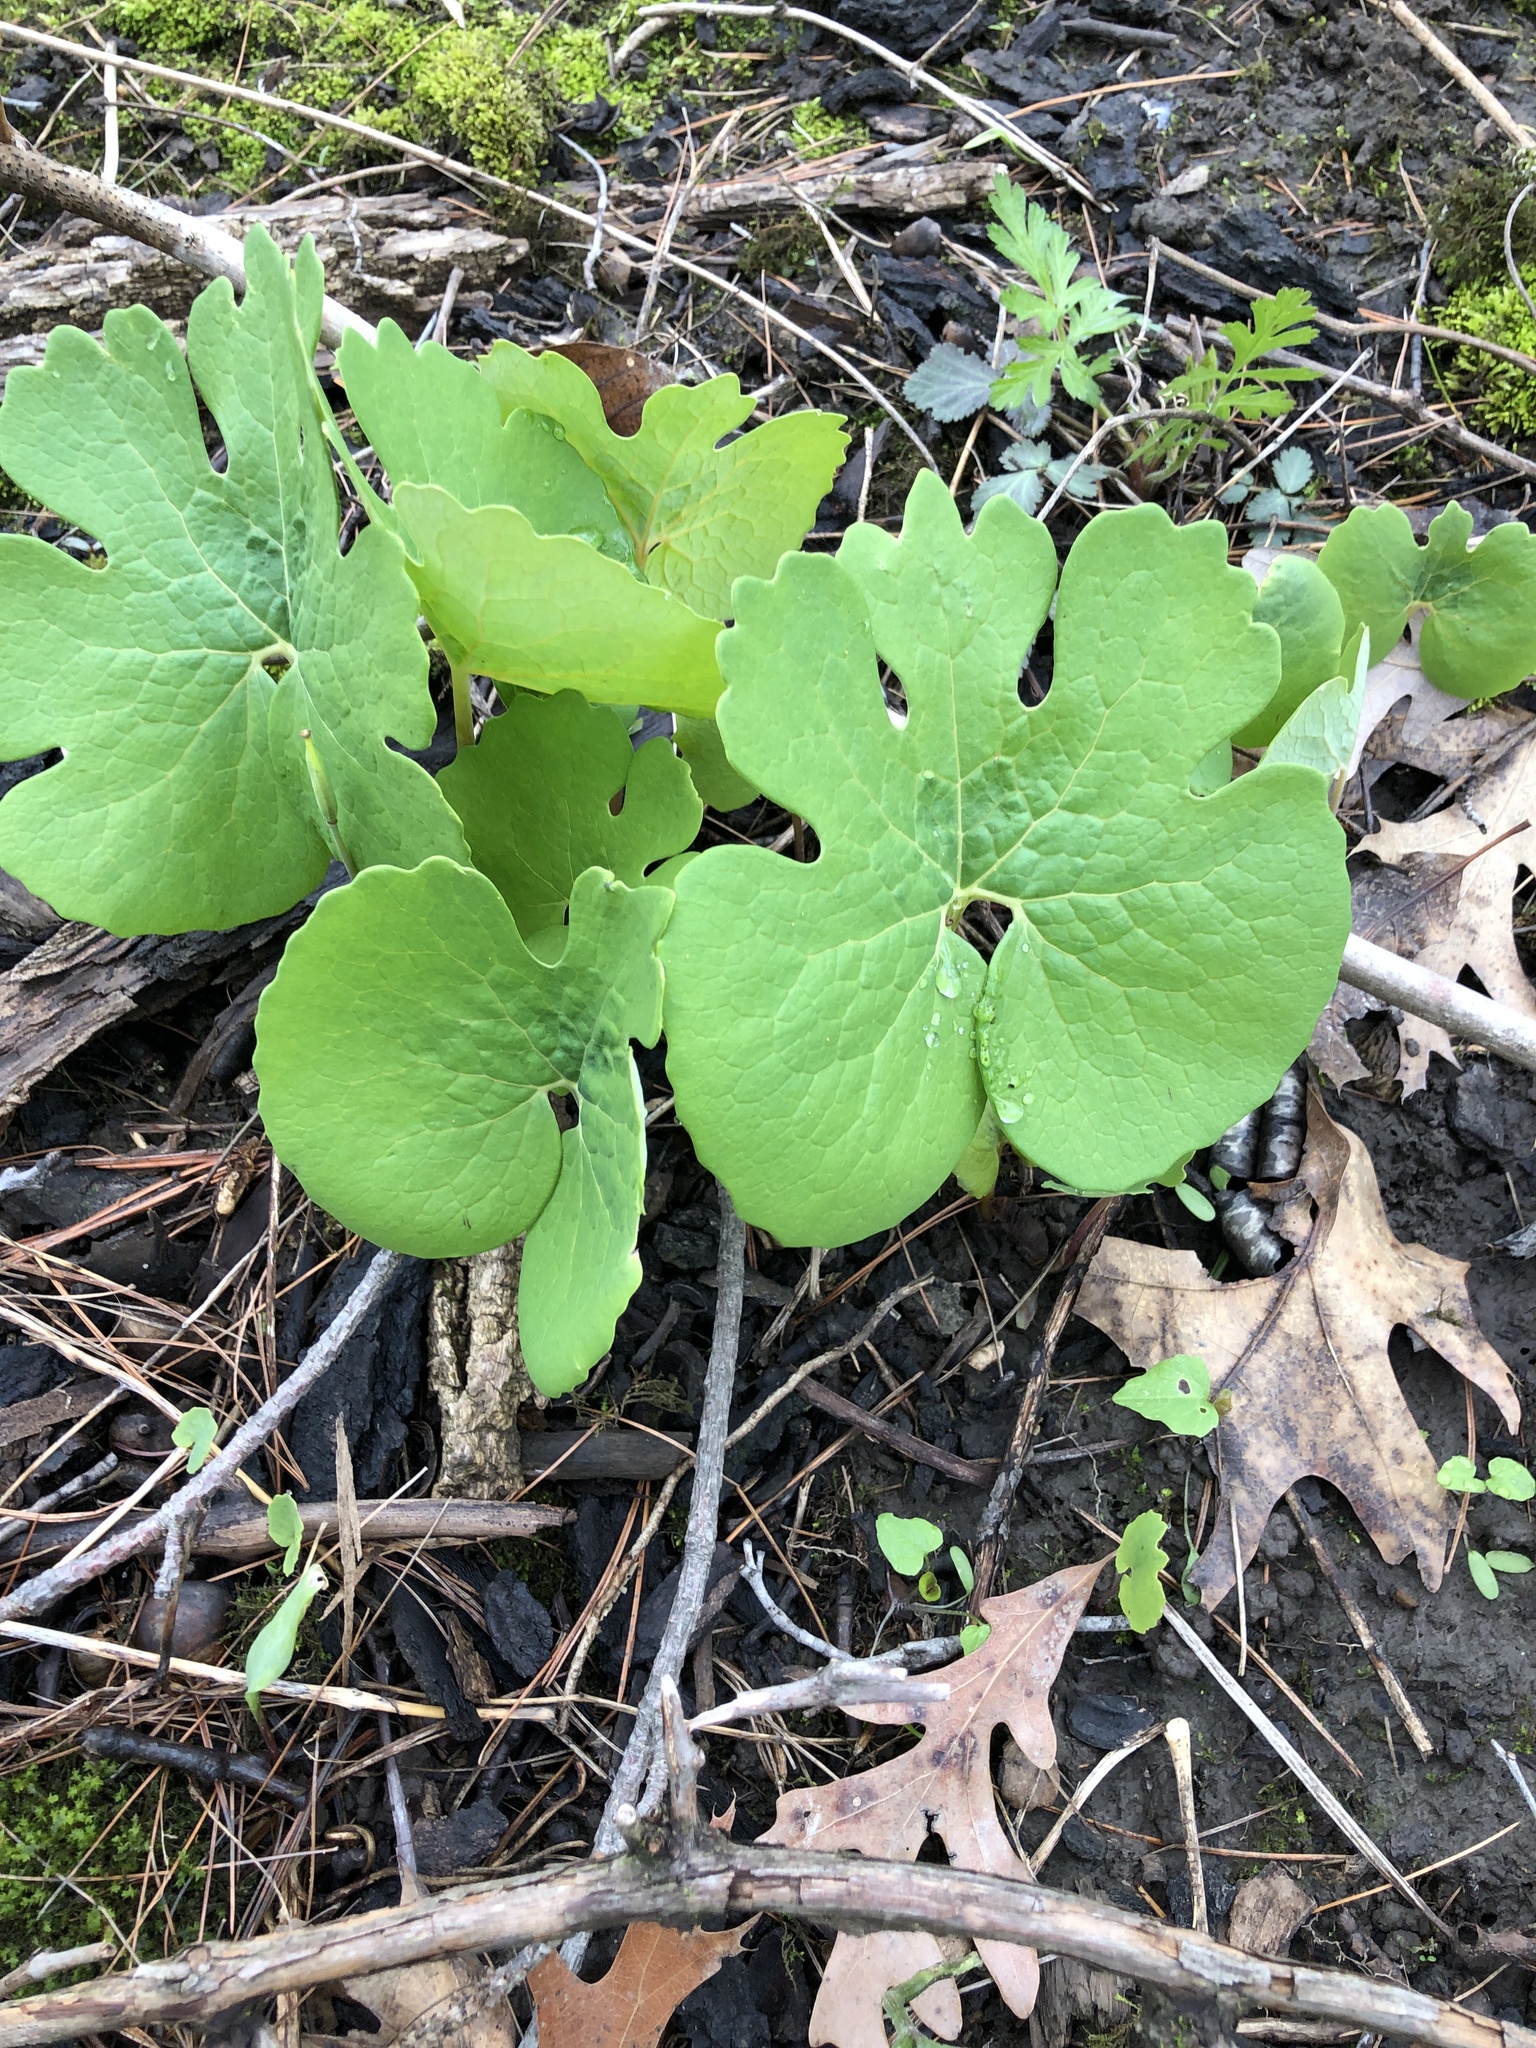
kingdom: Plantae
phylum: Tracheophyta
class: Magnoliopsida
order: Ranunculales
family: Papaveraceae
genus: Sanguinaria
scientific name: Sanguinaria canadensis
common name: Bloodroot
